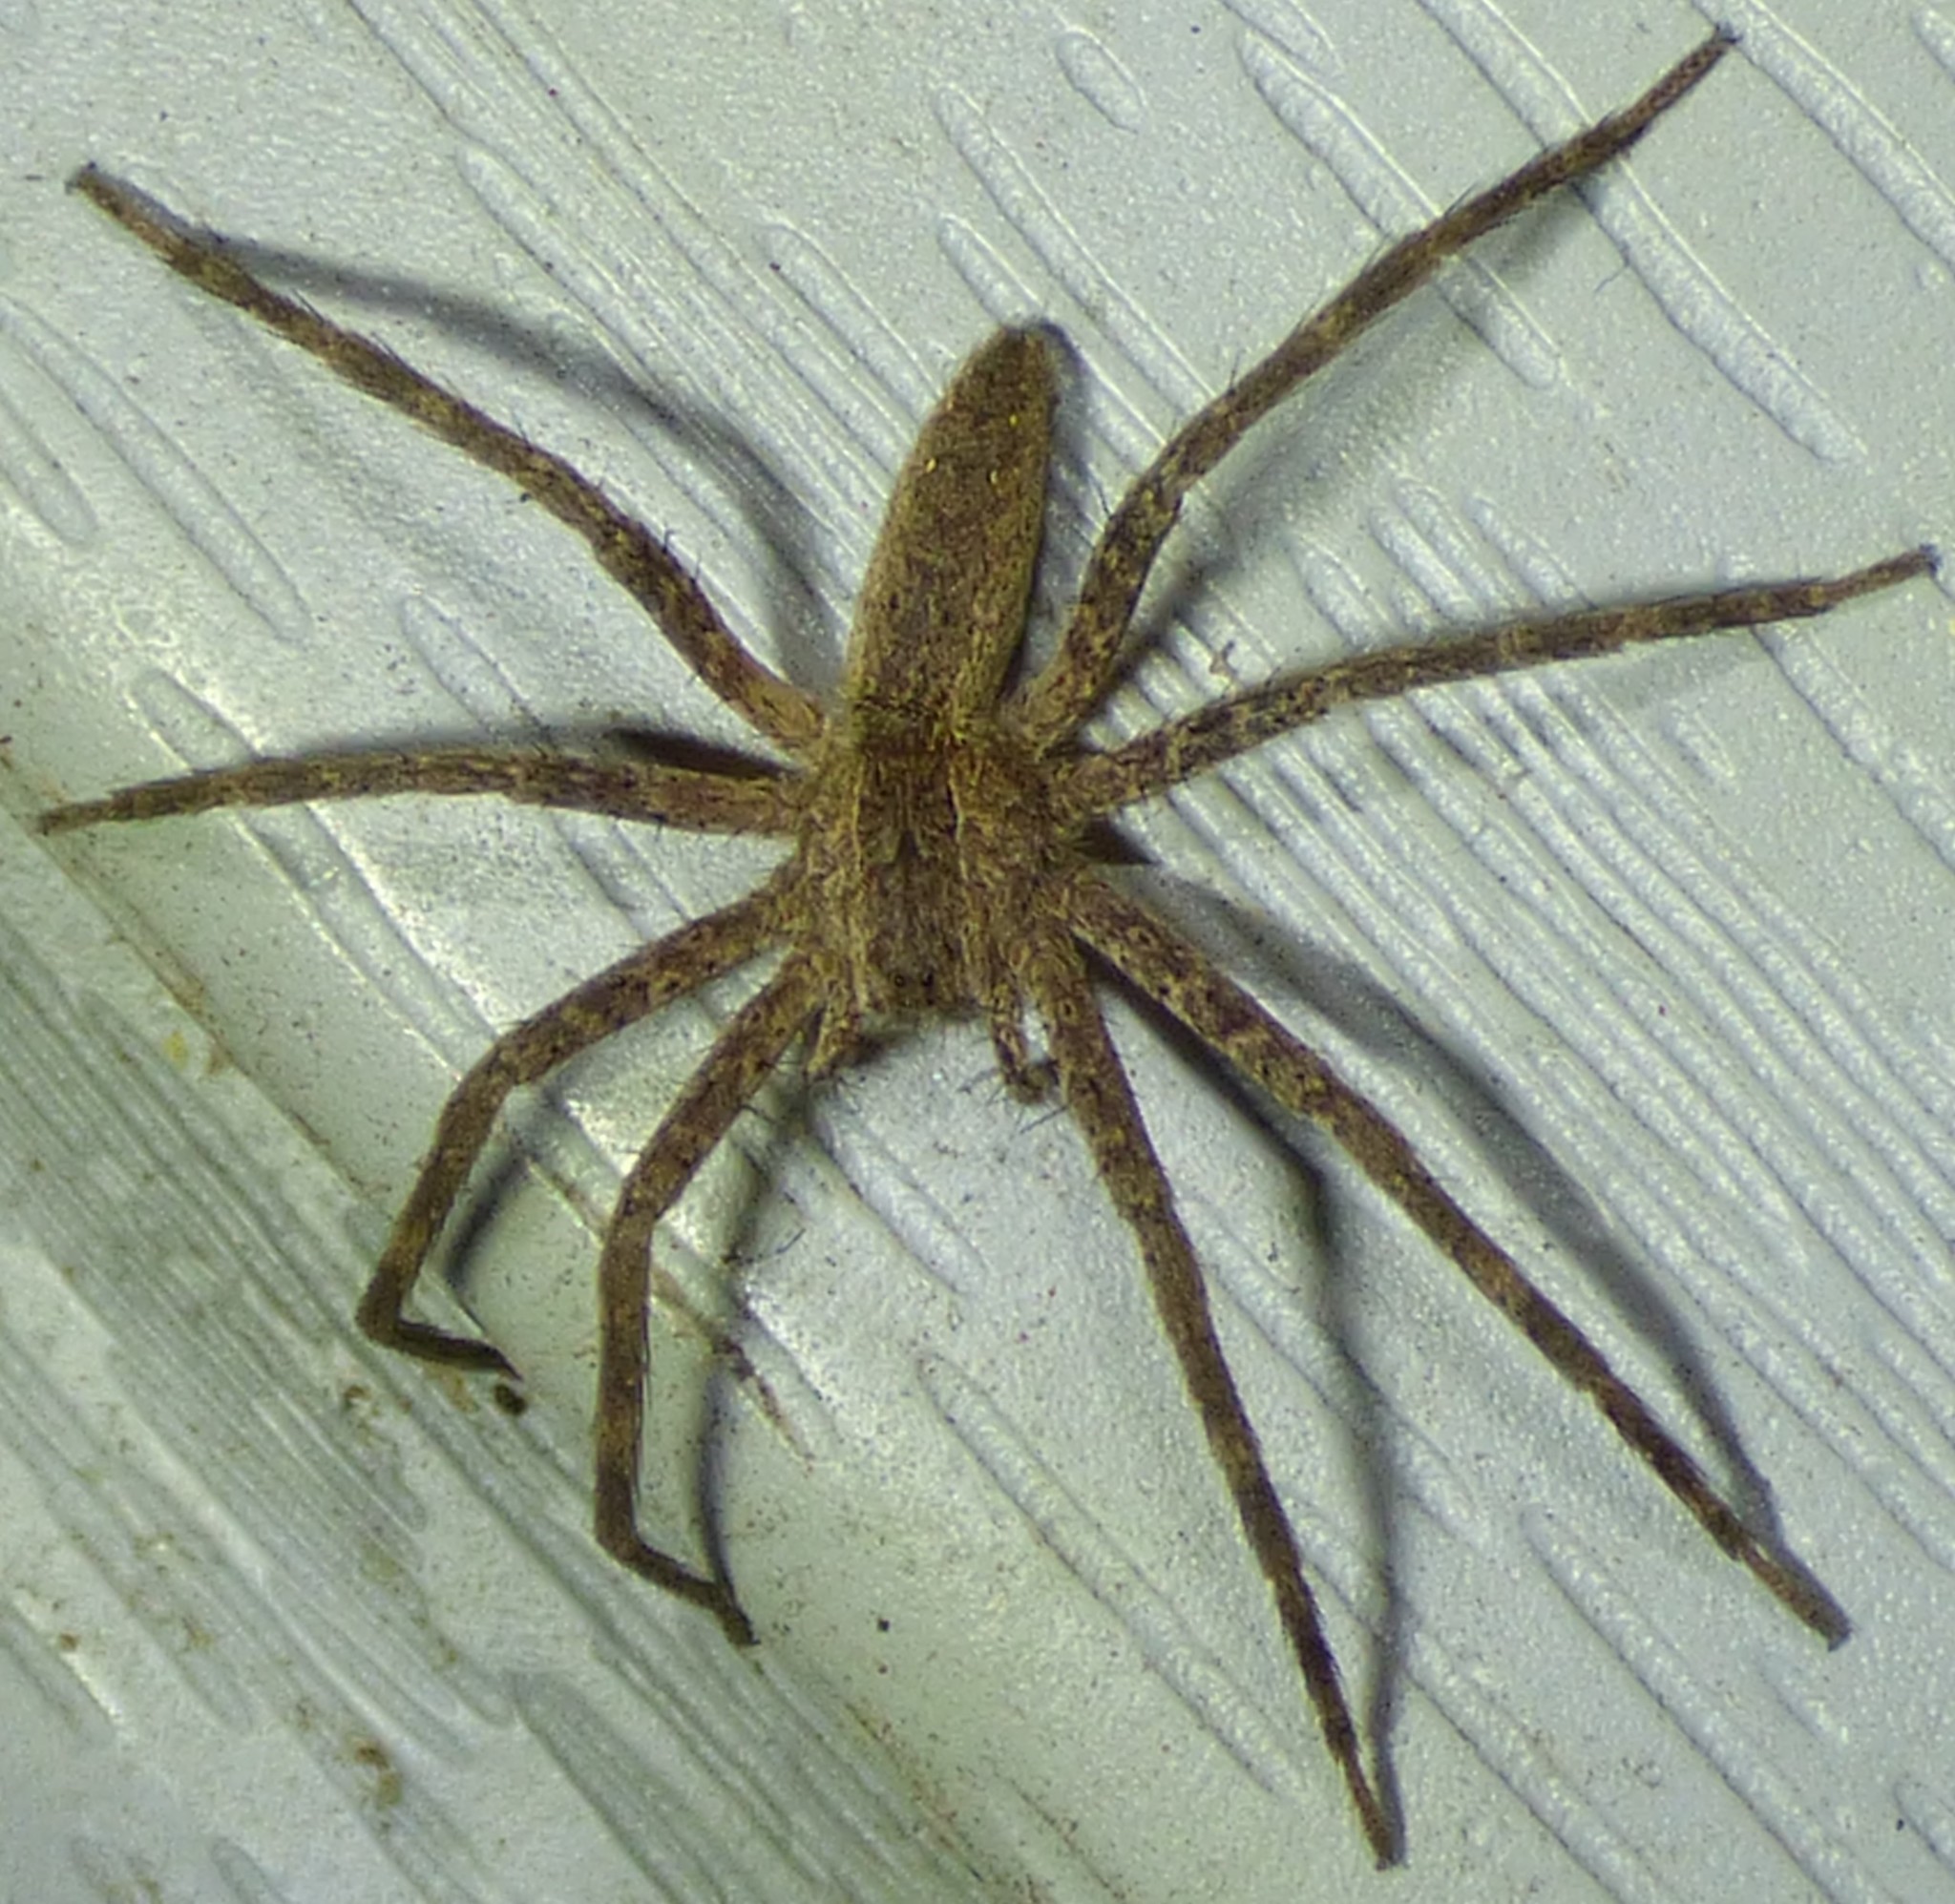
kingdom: Animalia
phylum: Arthropoda
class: Arachnida
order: Araneae
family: Pisauridae
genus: Pisaurina
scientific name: Pisaurina mira
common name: American nursery web spider
